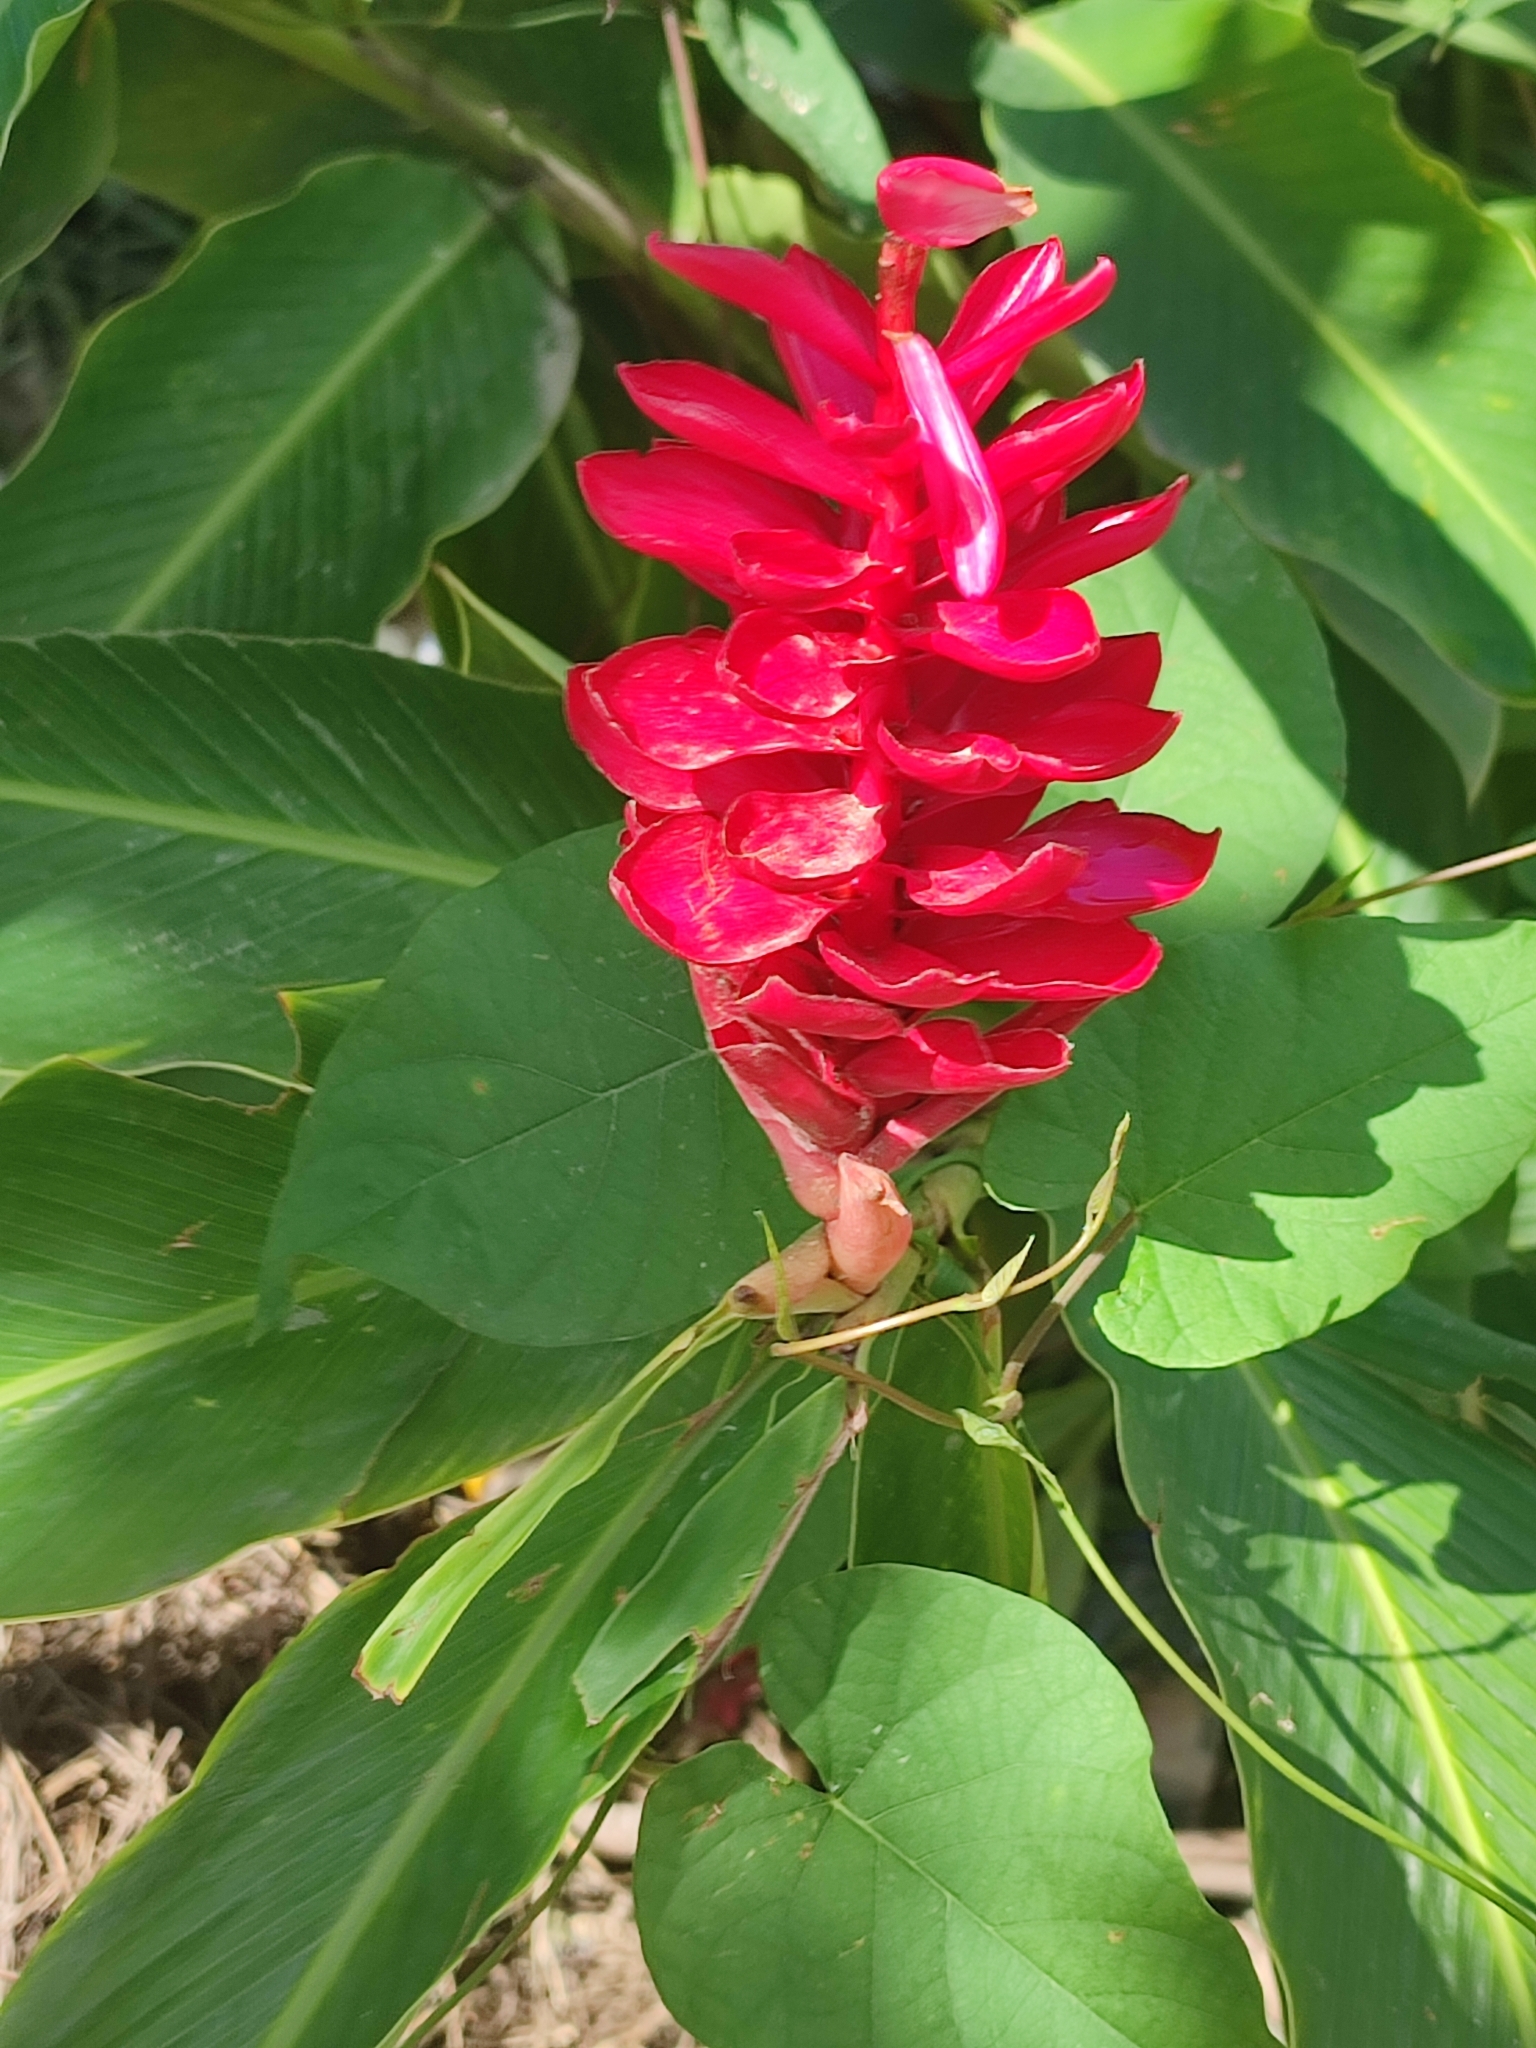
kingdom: Plantae
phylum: Tracheophyta
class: Liliopsida
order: Zingiberales
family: Zingiberaceae
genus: Alpinia
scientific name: Alpinia purpurata
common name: Red ginger
